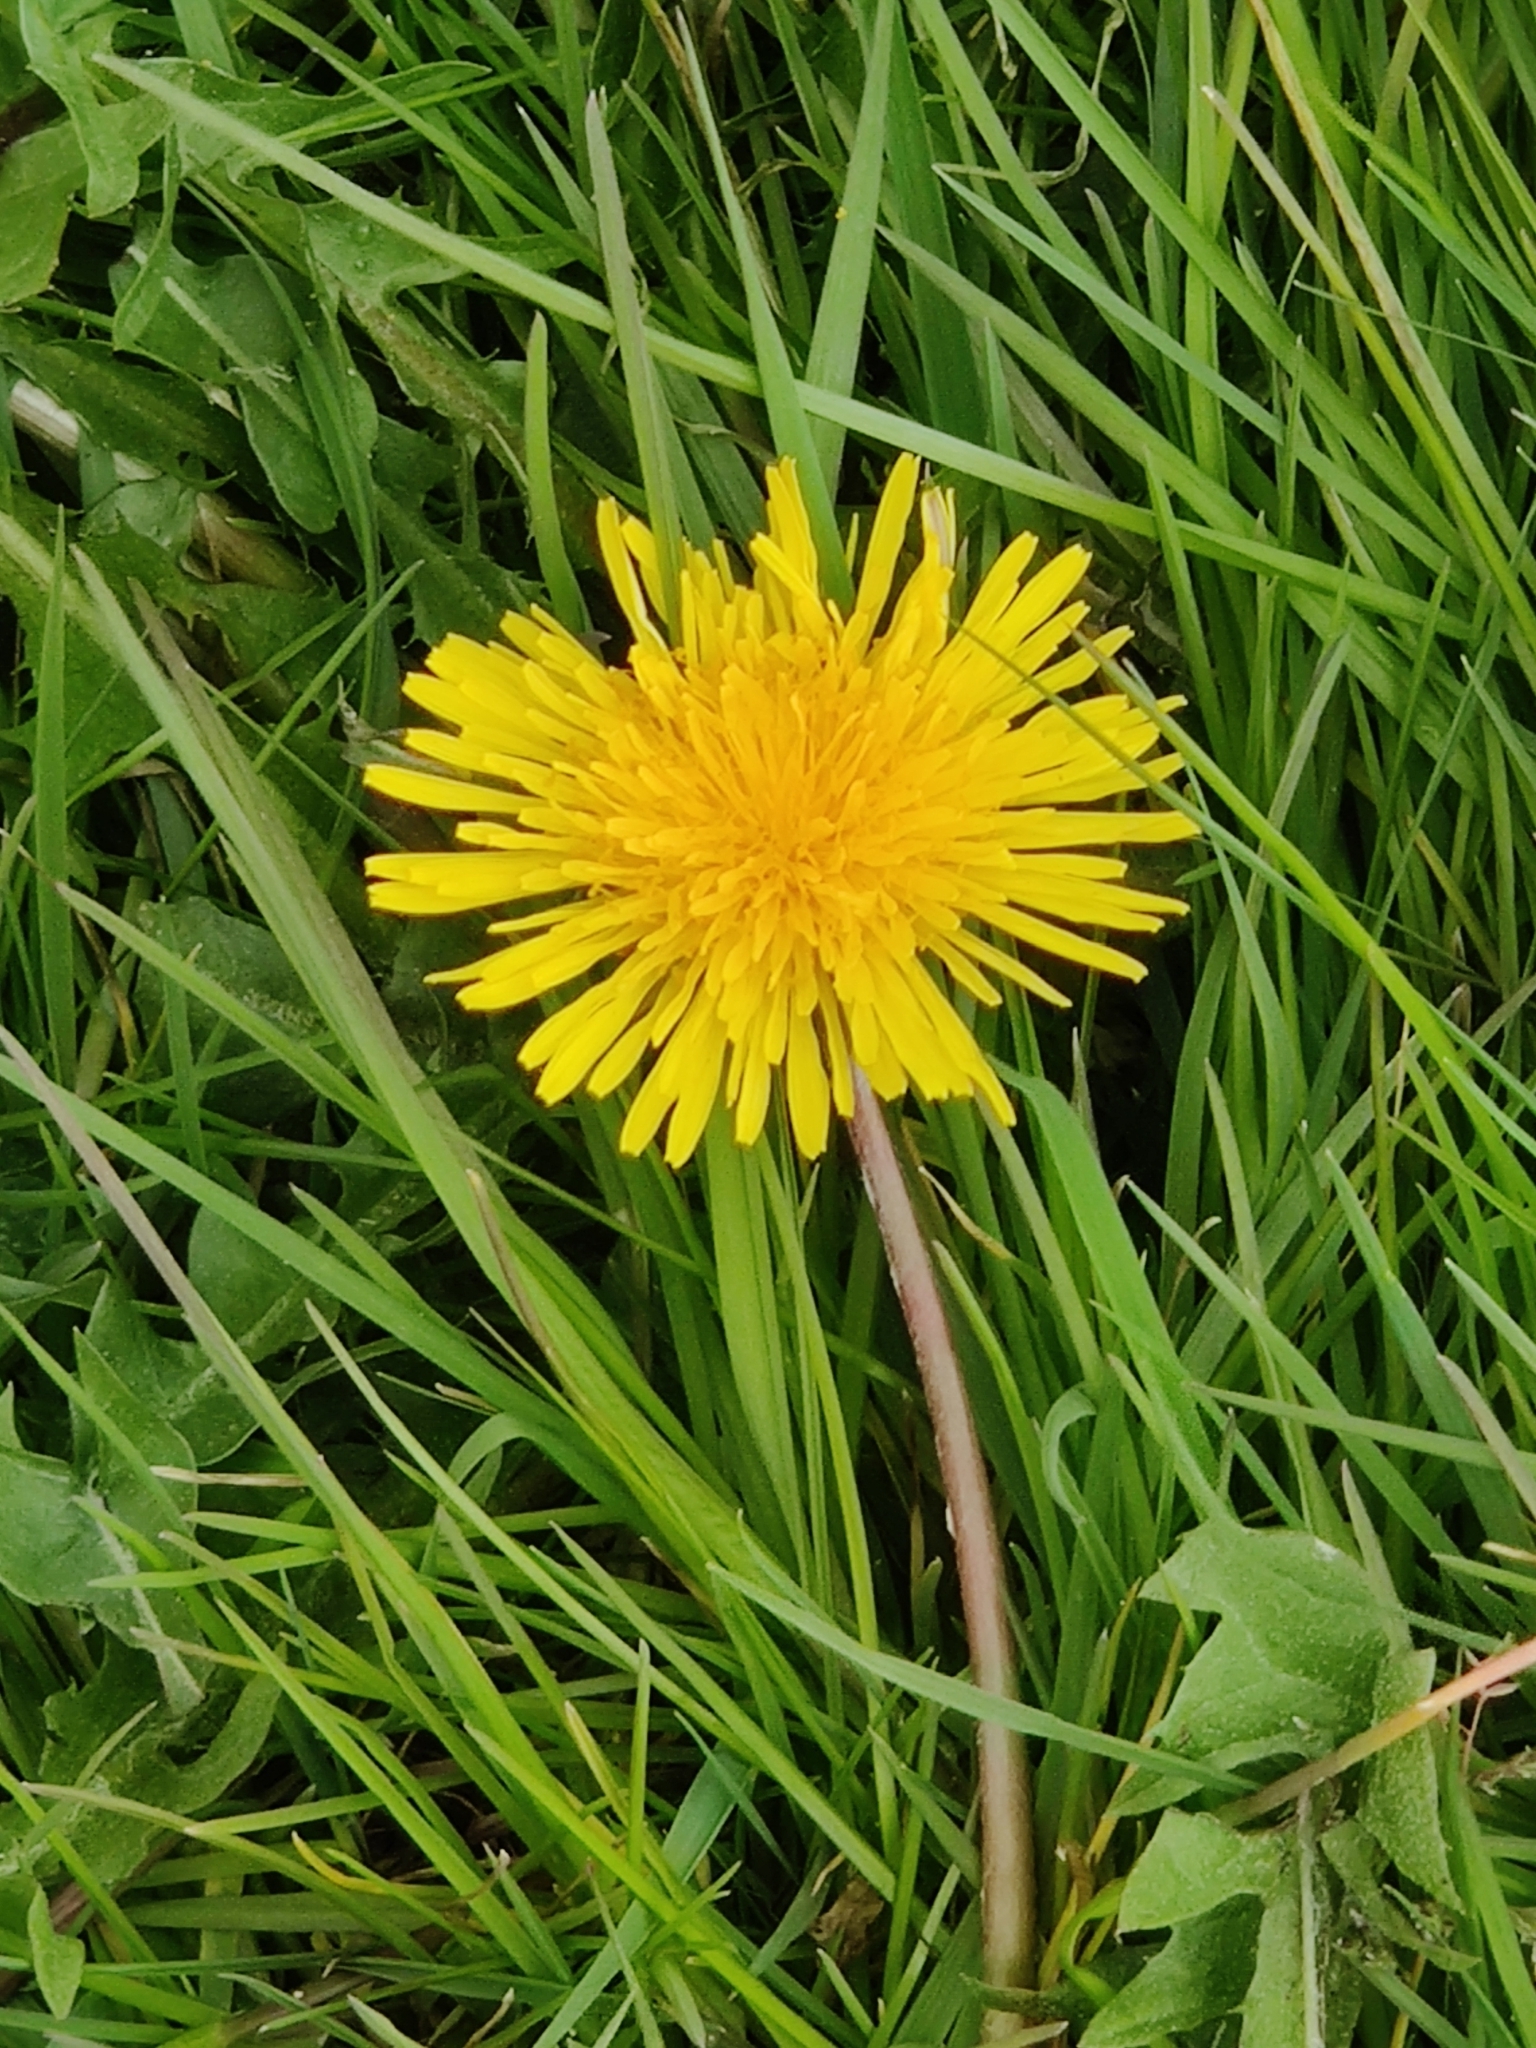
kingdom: Plantae
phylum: Tracheophyta
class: Magnoliopsida
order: Asterales
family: Asteraceae
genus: Taraxacum
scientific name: Taraxacum officinale
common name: Common dandelion
